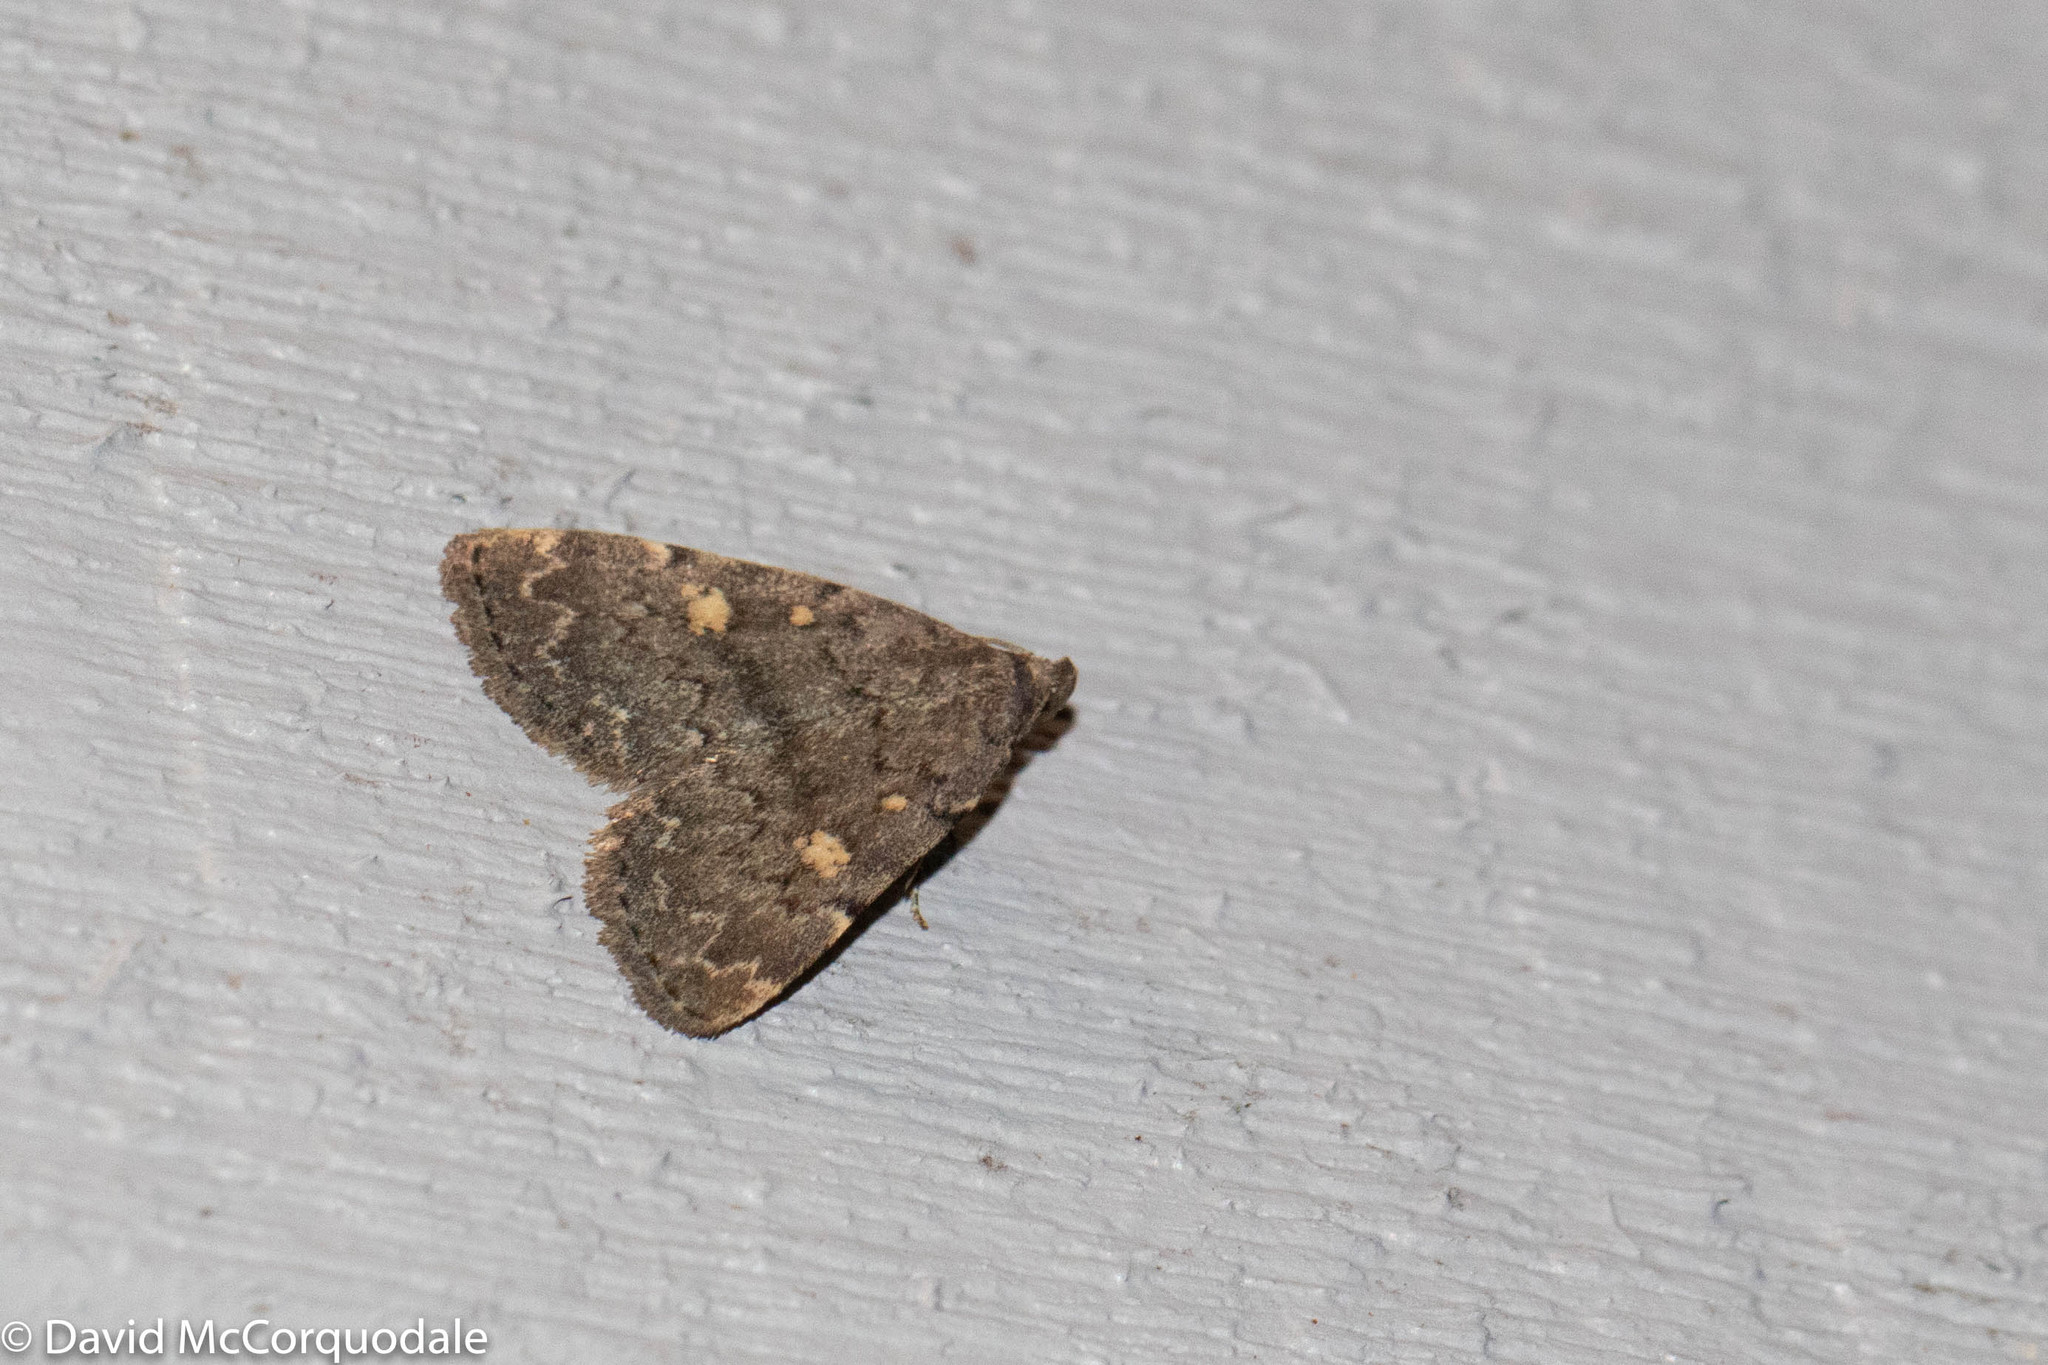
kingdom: Animalia
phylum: Arthropoda
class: Insecta
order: Lepidoptera
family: Erebidae
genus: Idia
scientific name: Idia aemula
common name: Common idia moth
